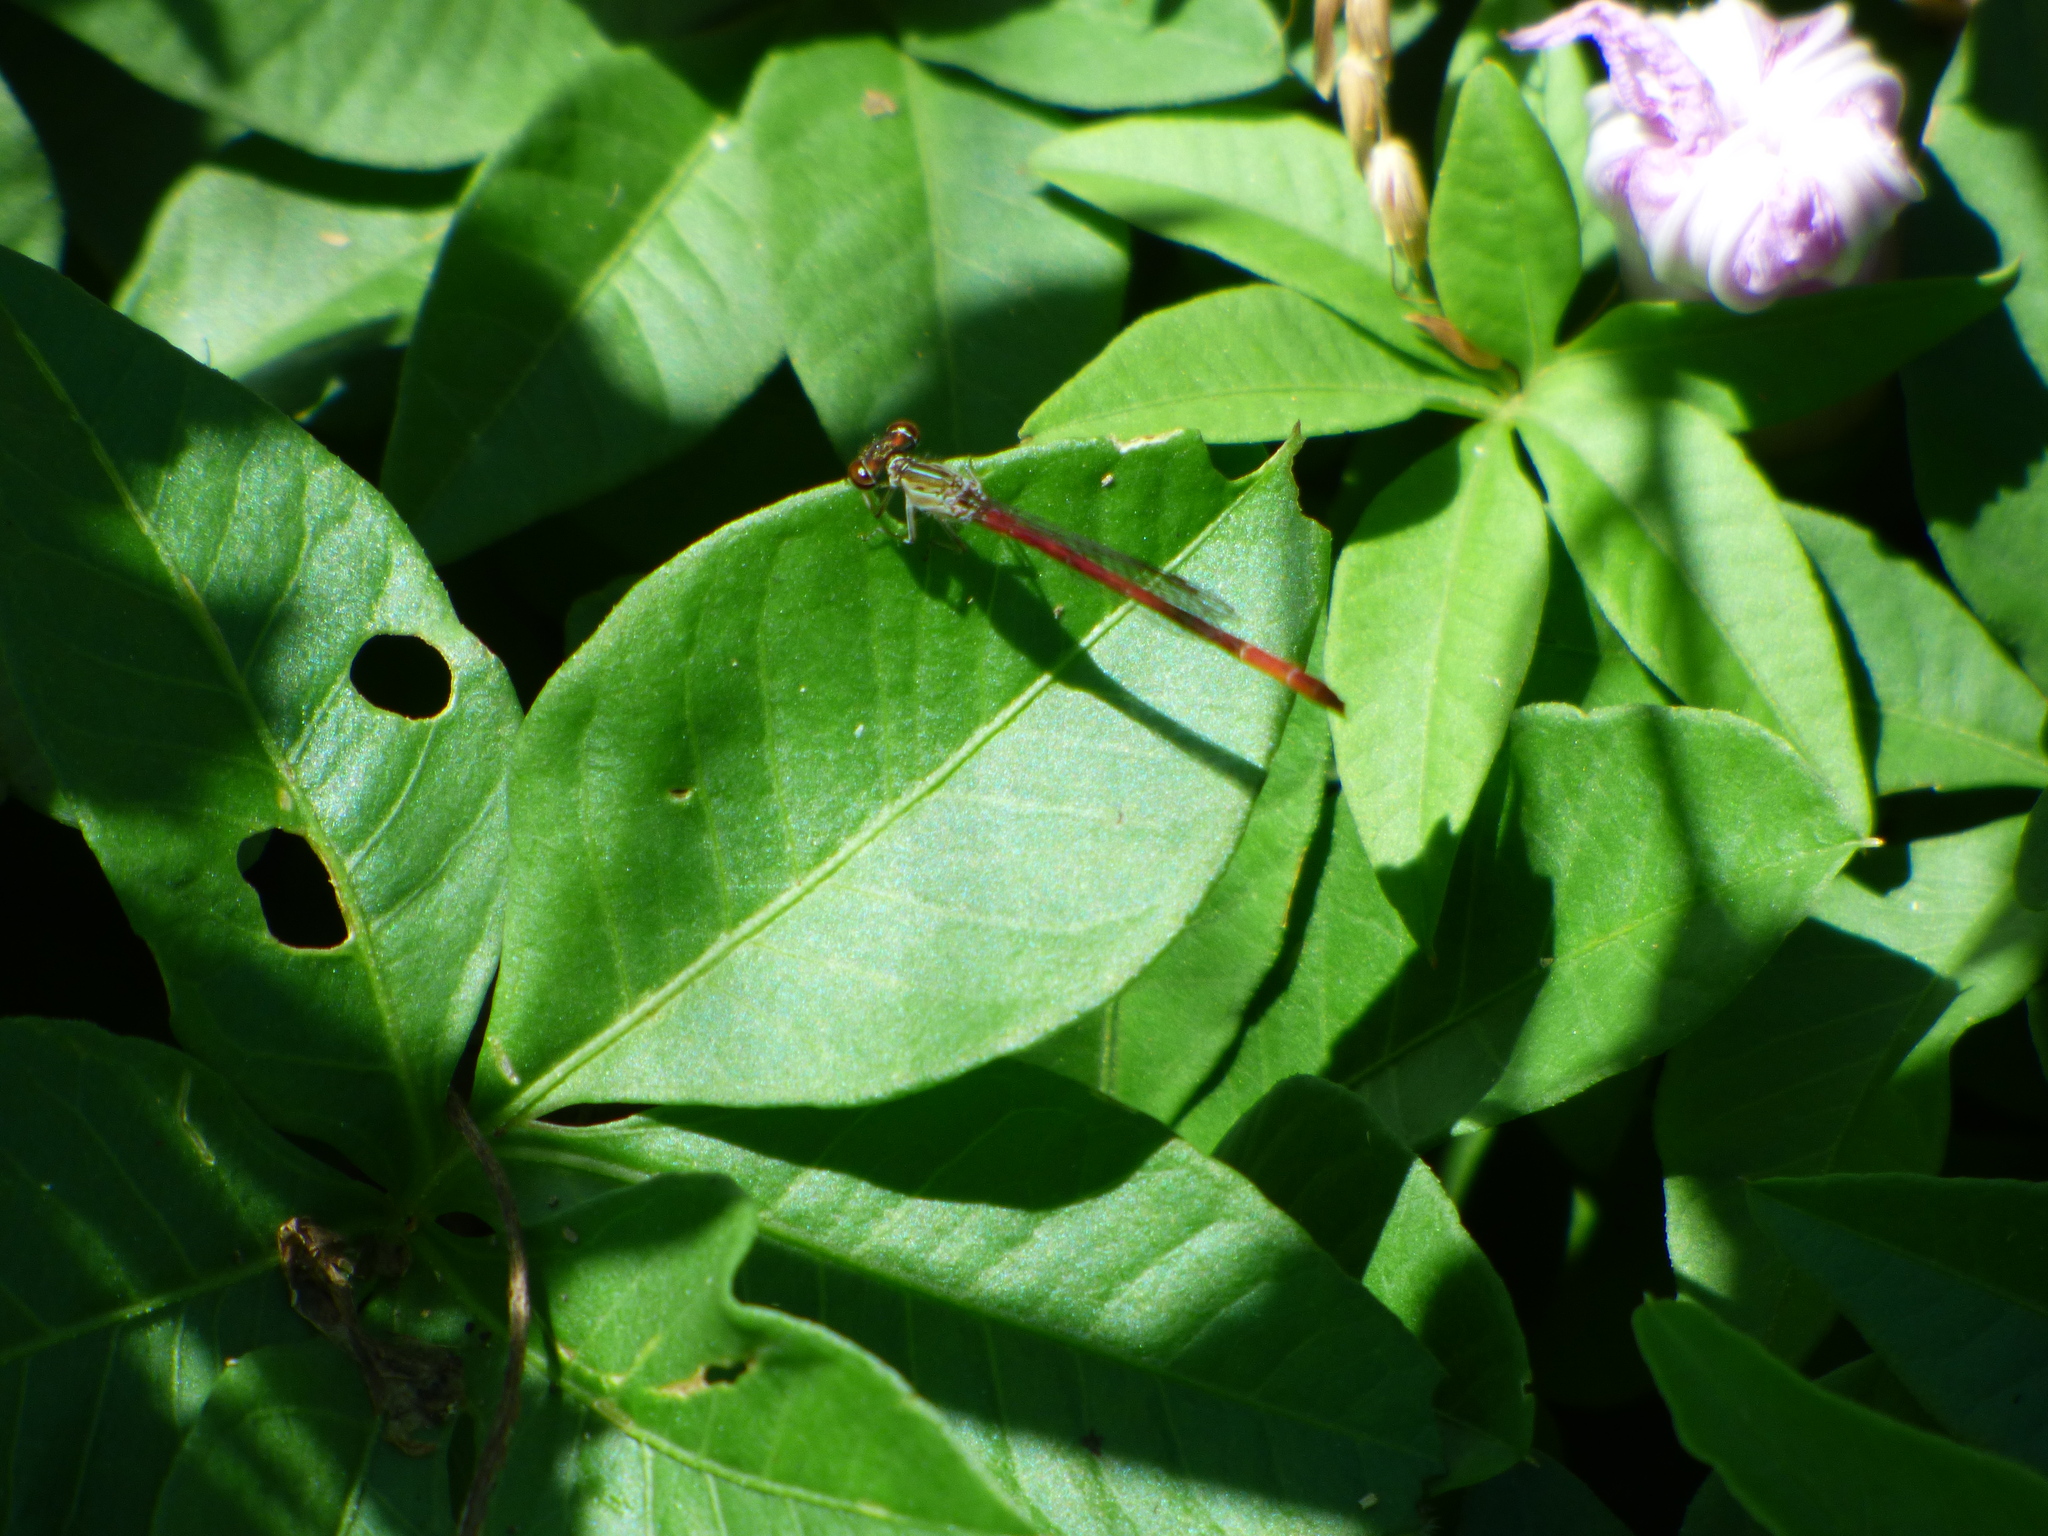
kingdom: Animalia
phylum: Arthropoda
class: Insecta
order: Odonata
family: Coenagrionidae
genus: Telebasis
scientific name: Telebasis willinki
